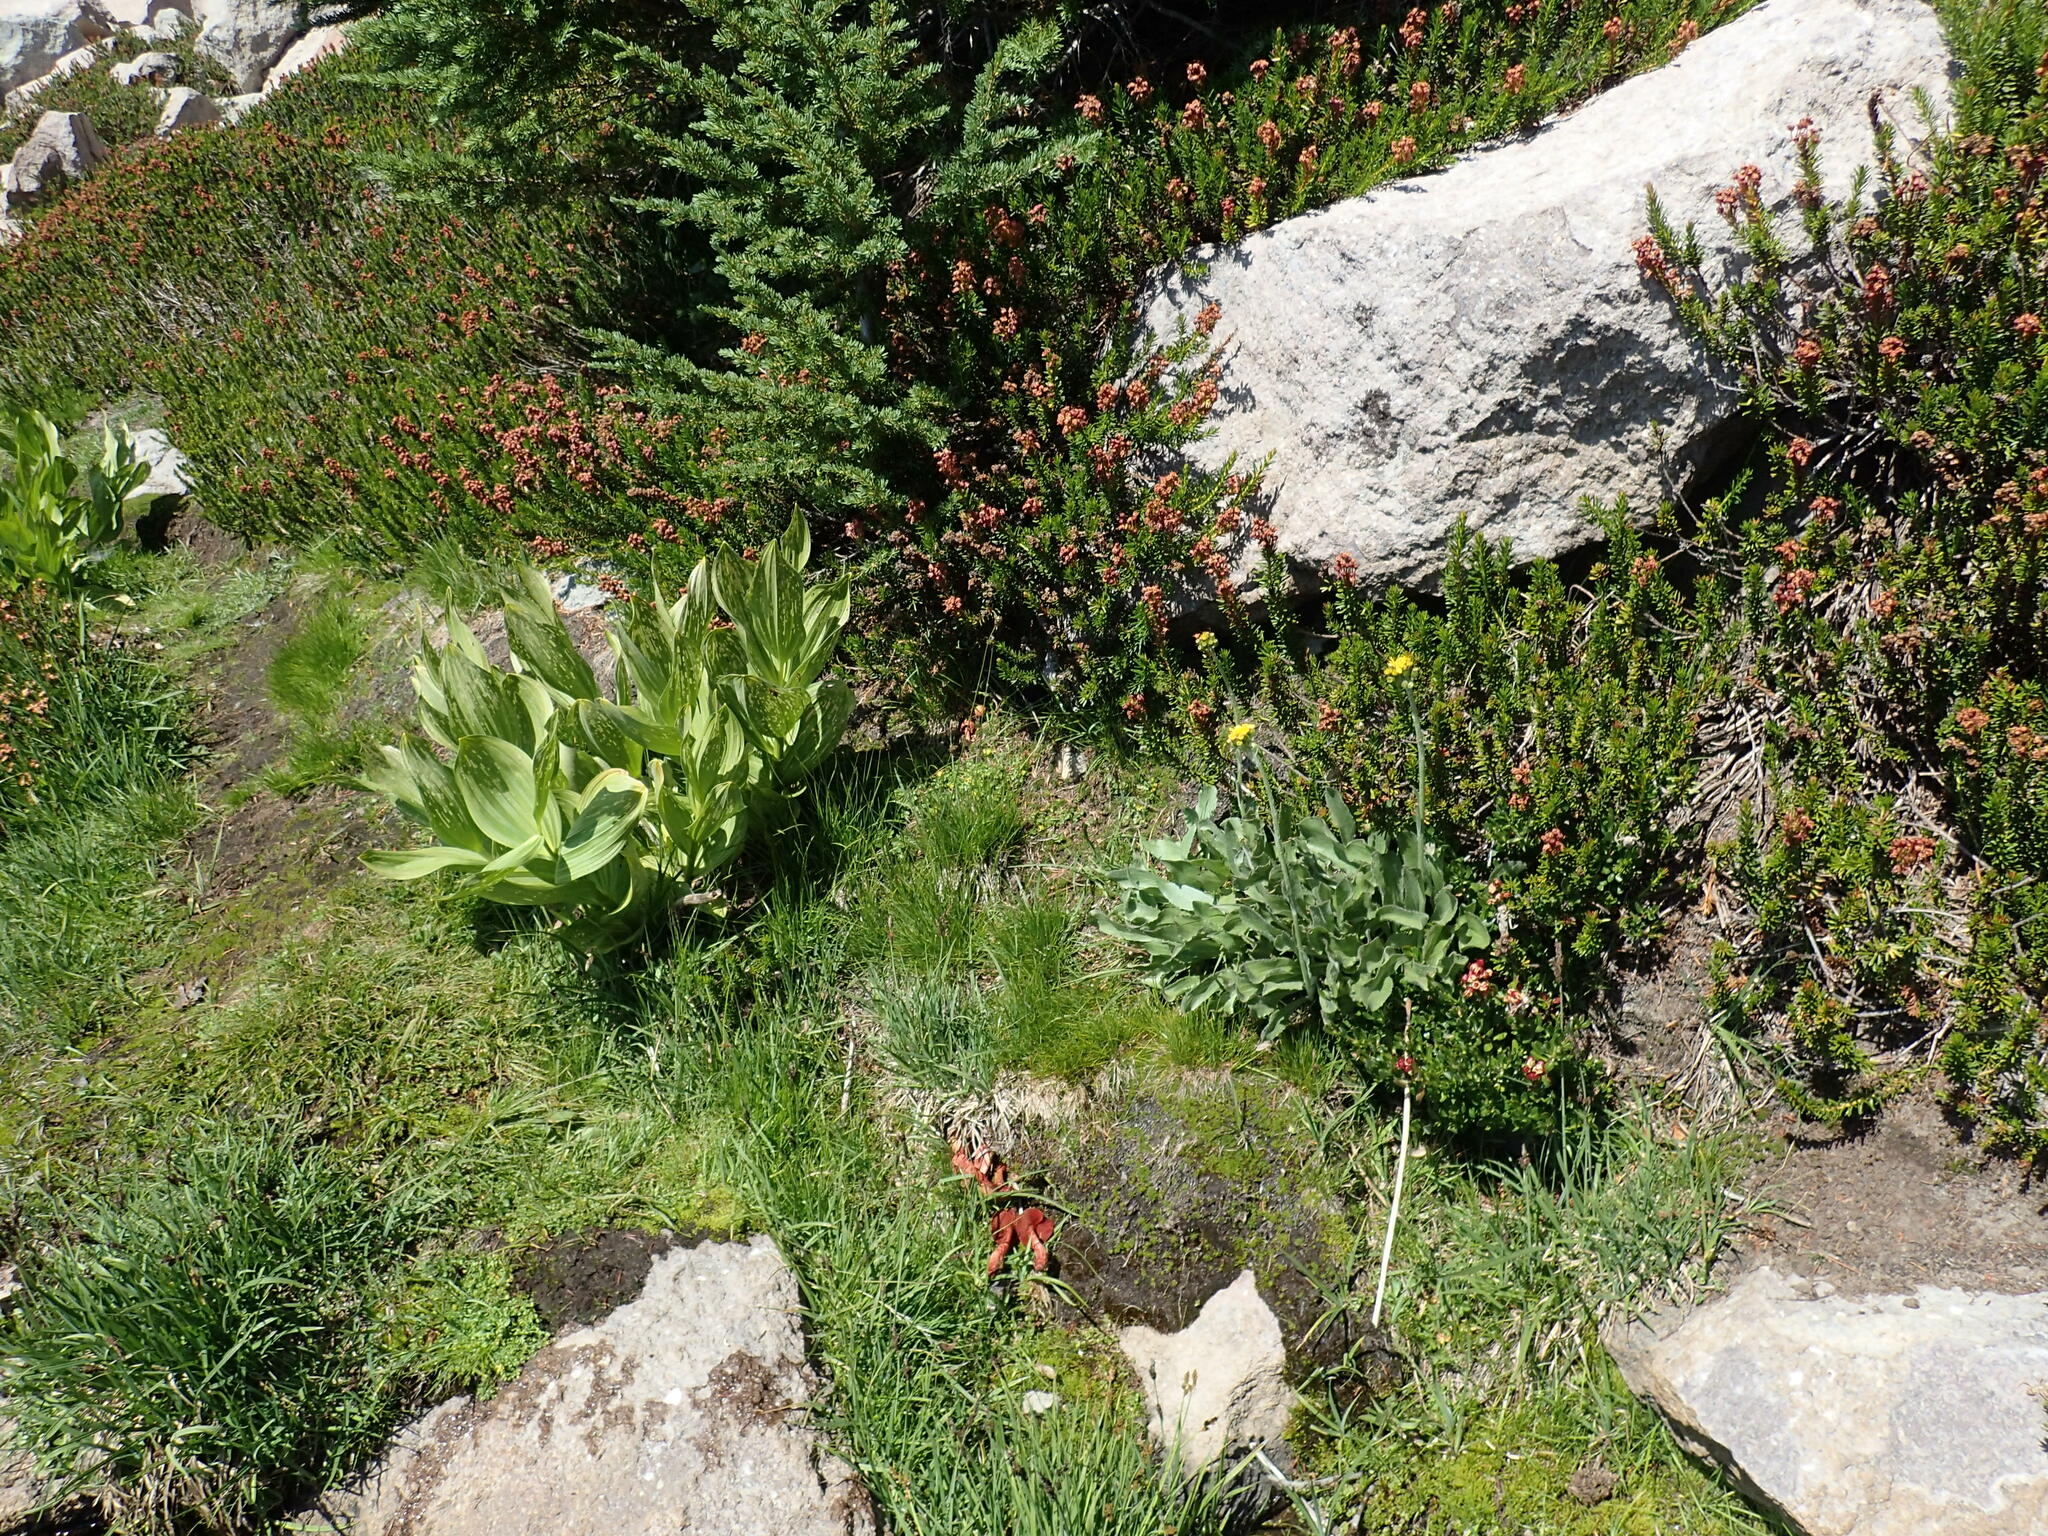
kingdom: Fungi
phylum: Basidiomycota
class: Agaricomycetes
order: Agaricales
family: Cortinariaceae
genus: Cortinarius
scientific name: Cortinarius sierraensis
